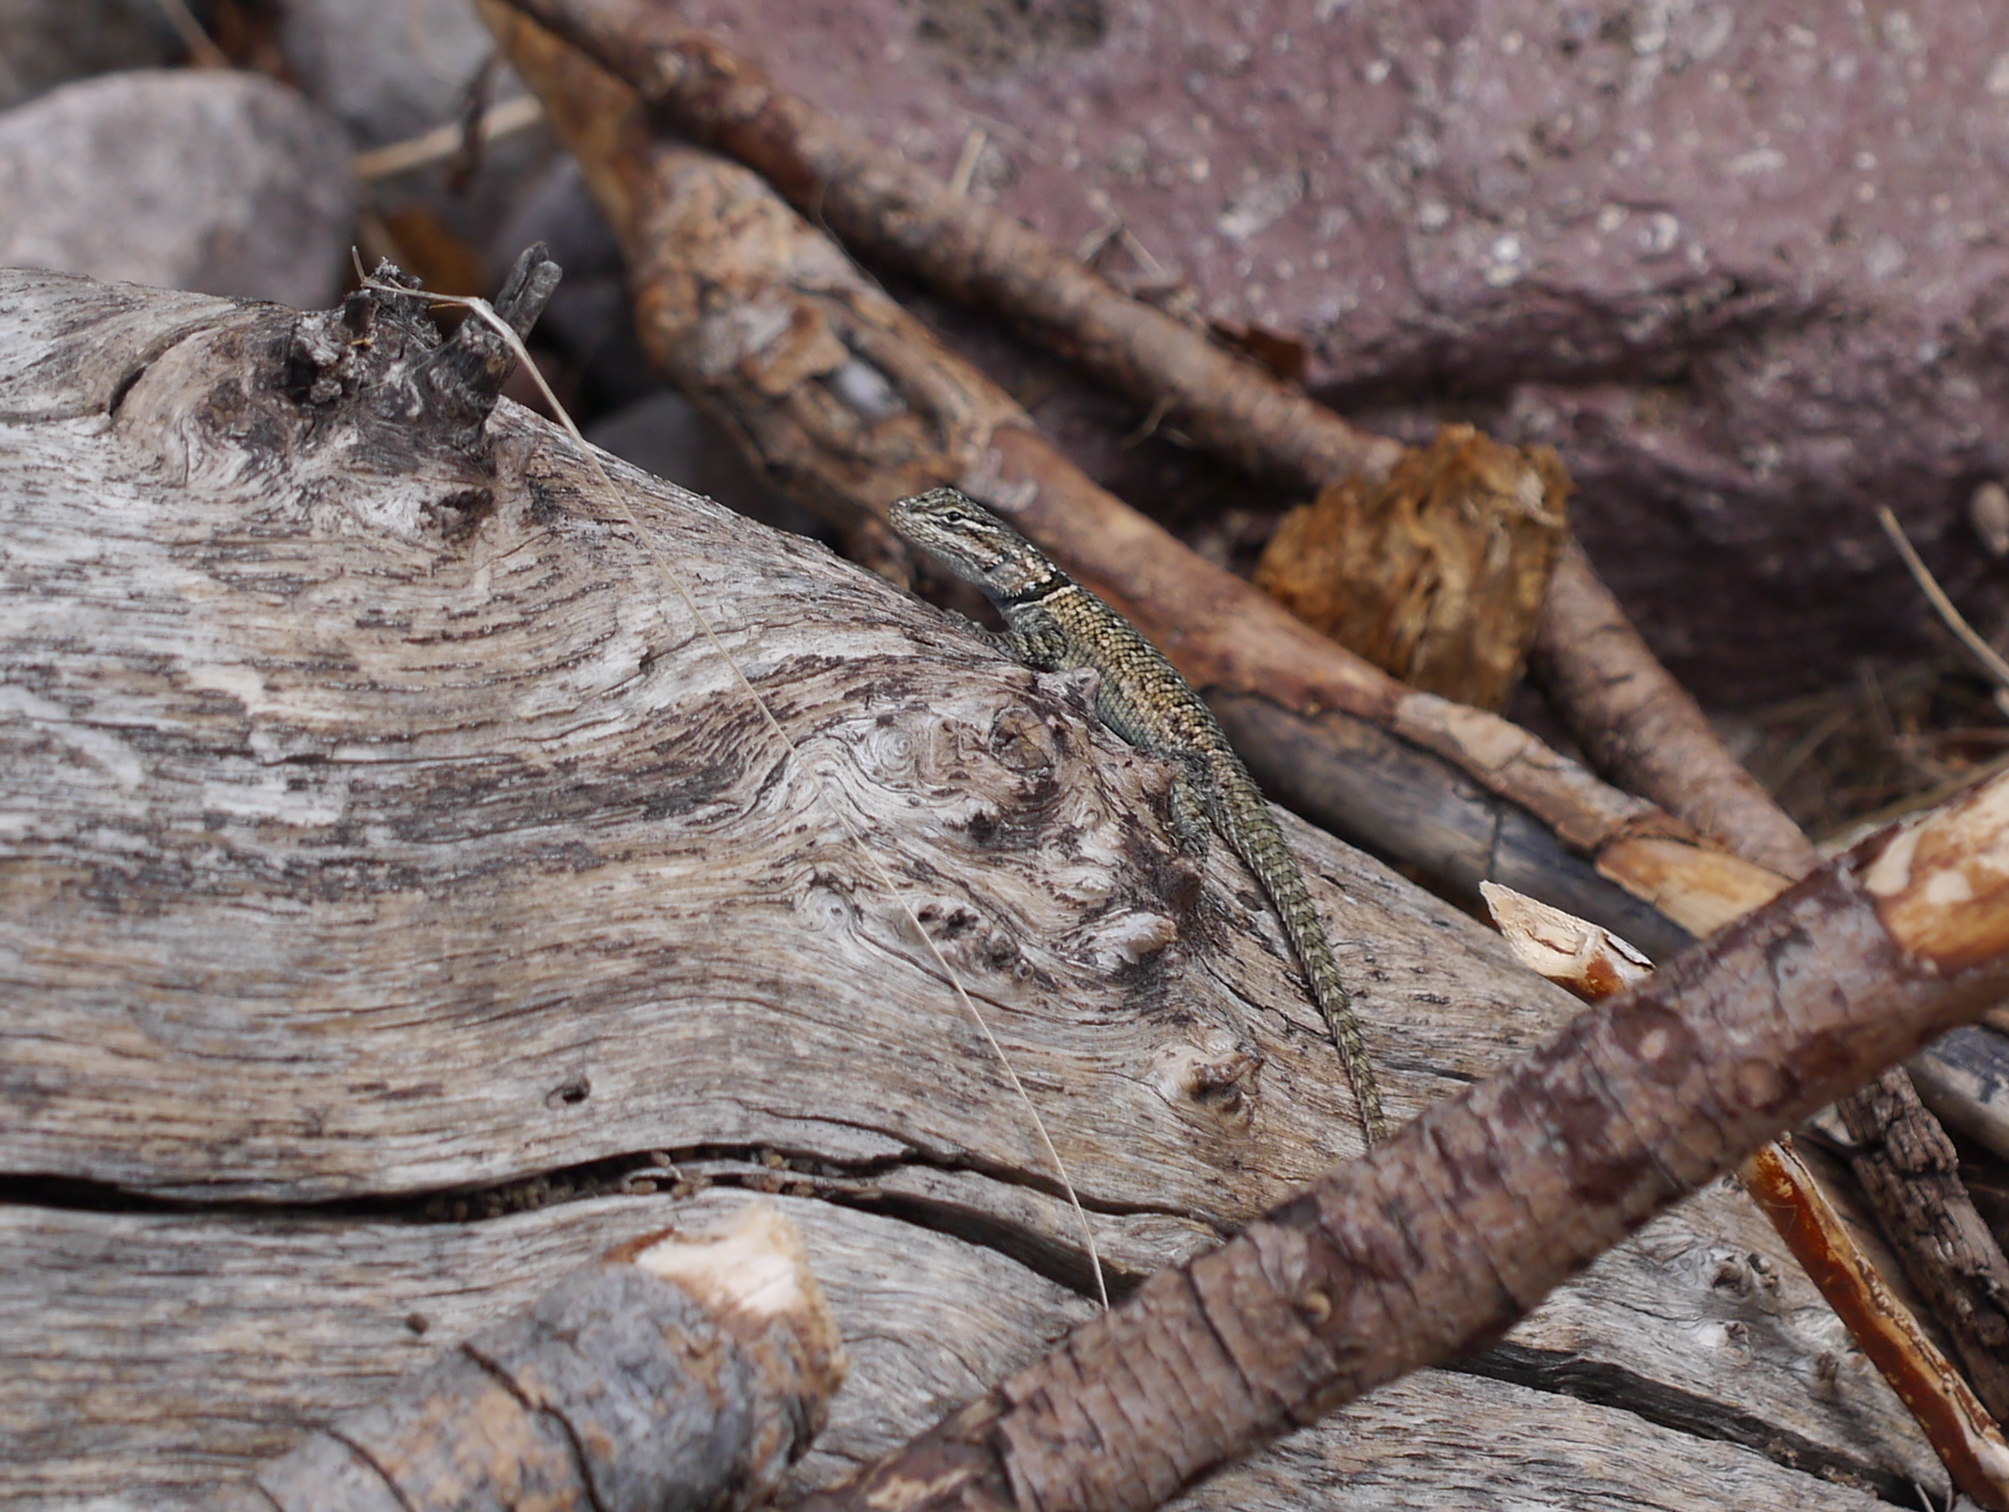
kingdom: Animalia
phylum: Chordata
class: Squamata
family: Phrynosomatidae
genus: Sceloporus
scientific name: Sceloporus jarrovii
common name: Yarrow's spiny lizard
